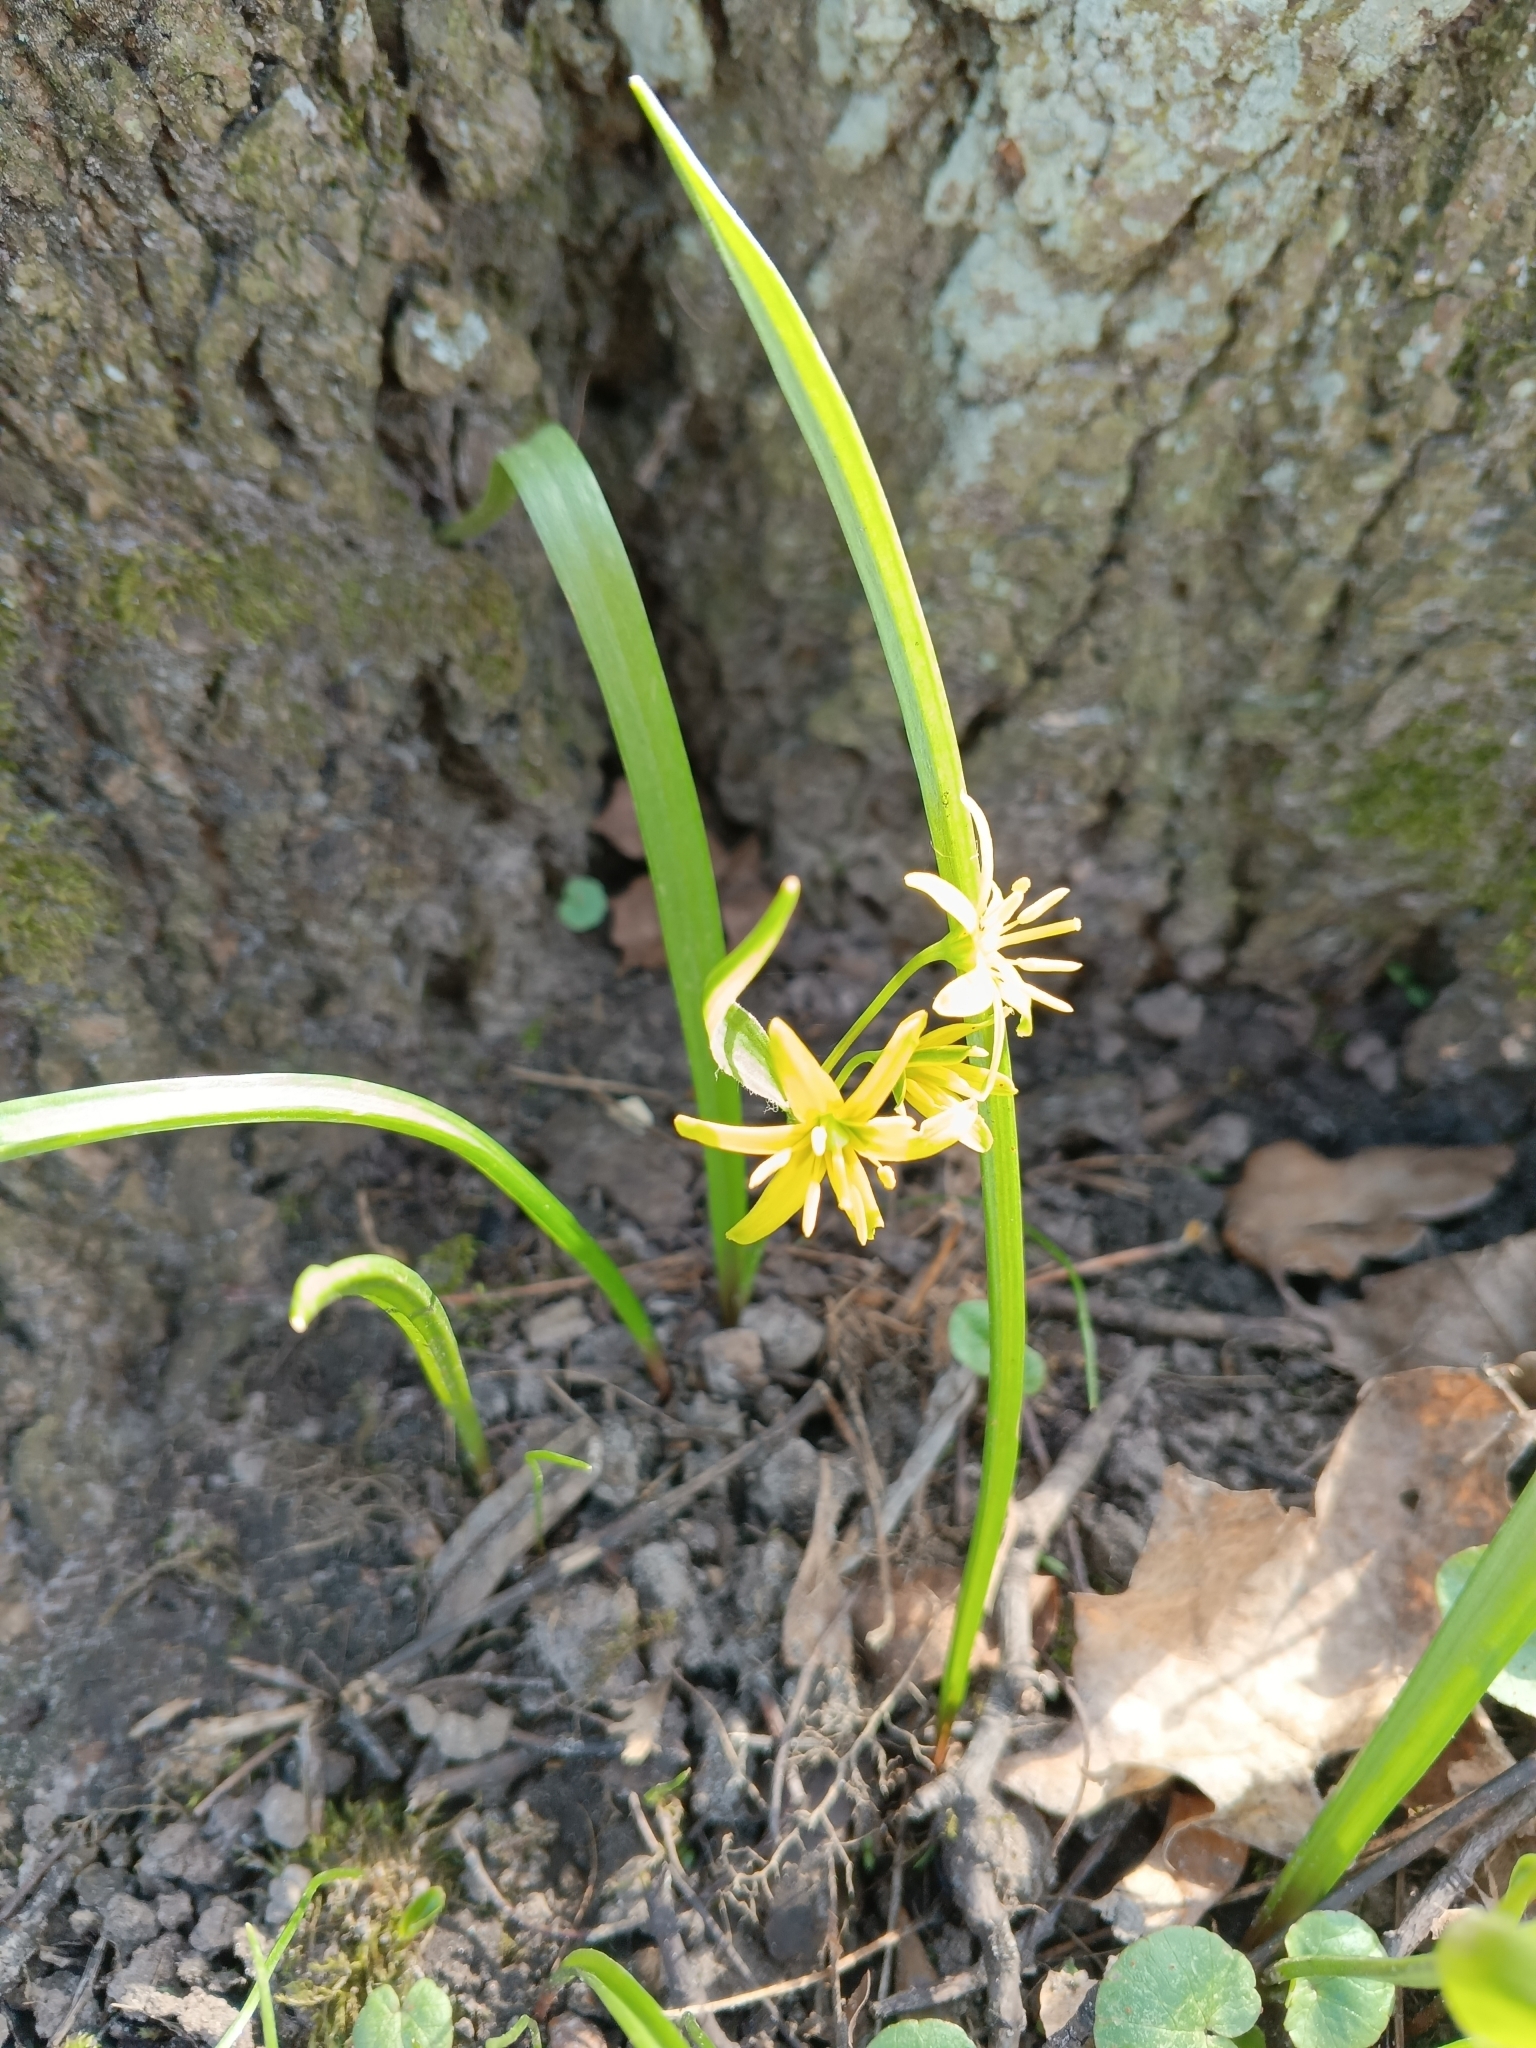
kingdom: Plantae
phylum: Tracheophyta
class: Liliopsida
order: Liliales
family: Liliaceae
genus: Gagea
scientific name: Gagea lutea
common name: Yellow star-of-bethlehem
